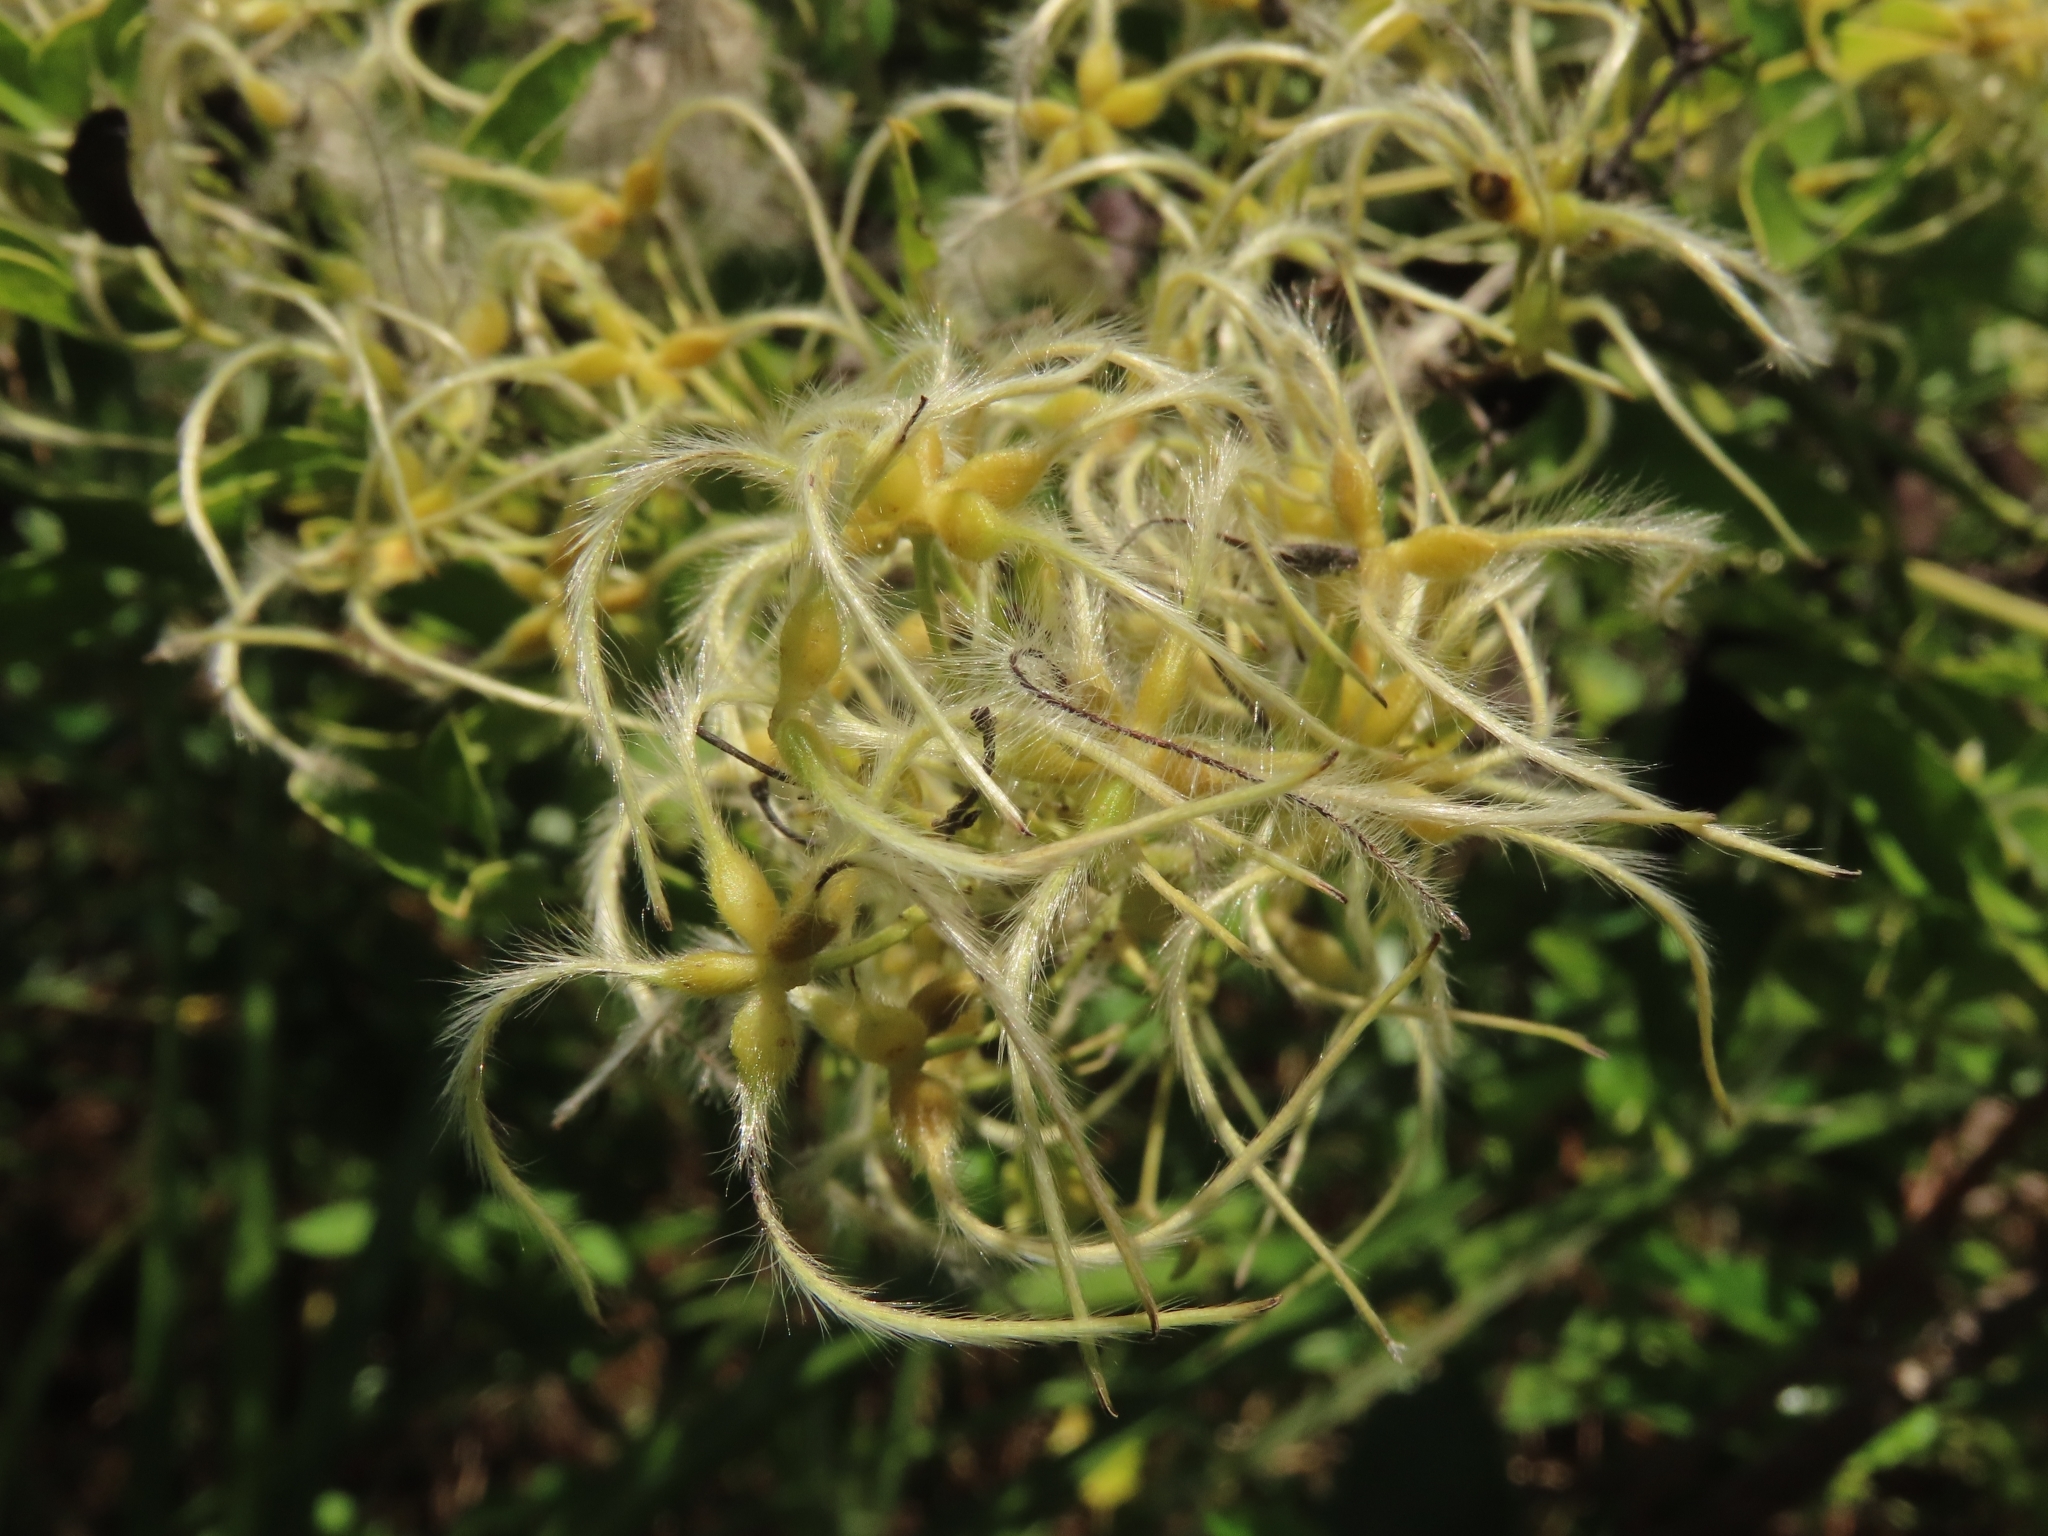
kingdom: Plantae
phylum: Tracheophyta
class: Magnoliopsida
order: Ranunculales
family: Ranunculaceae
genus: Clematis
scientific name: Clematis chinensis
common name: Chinese clematis
